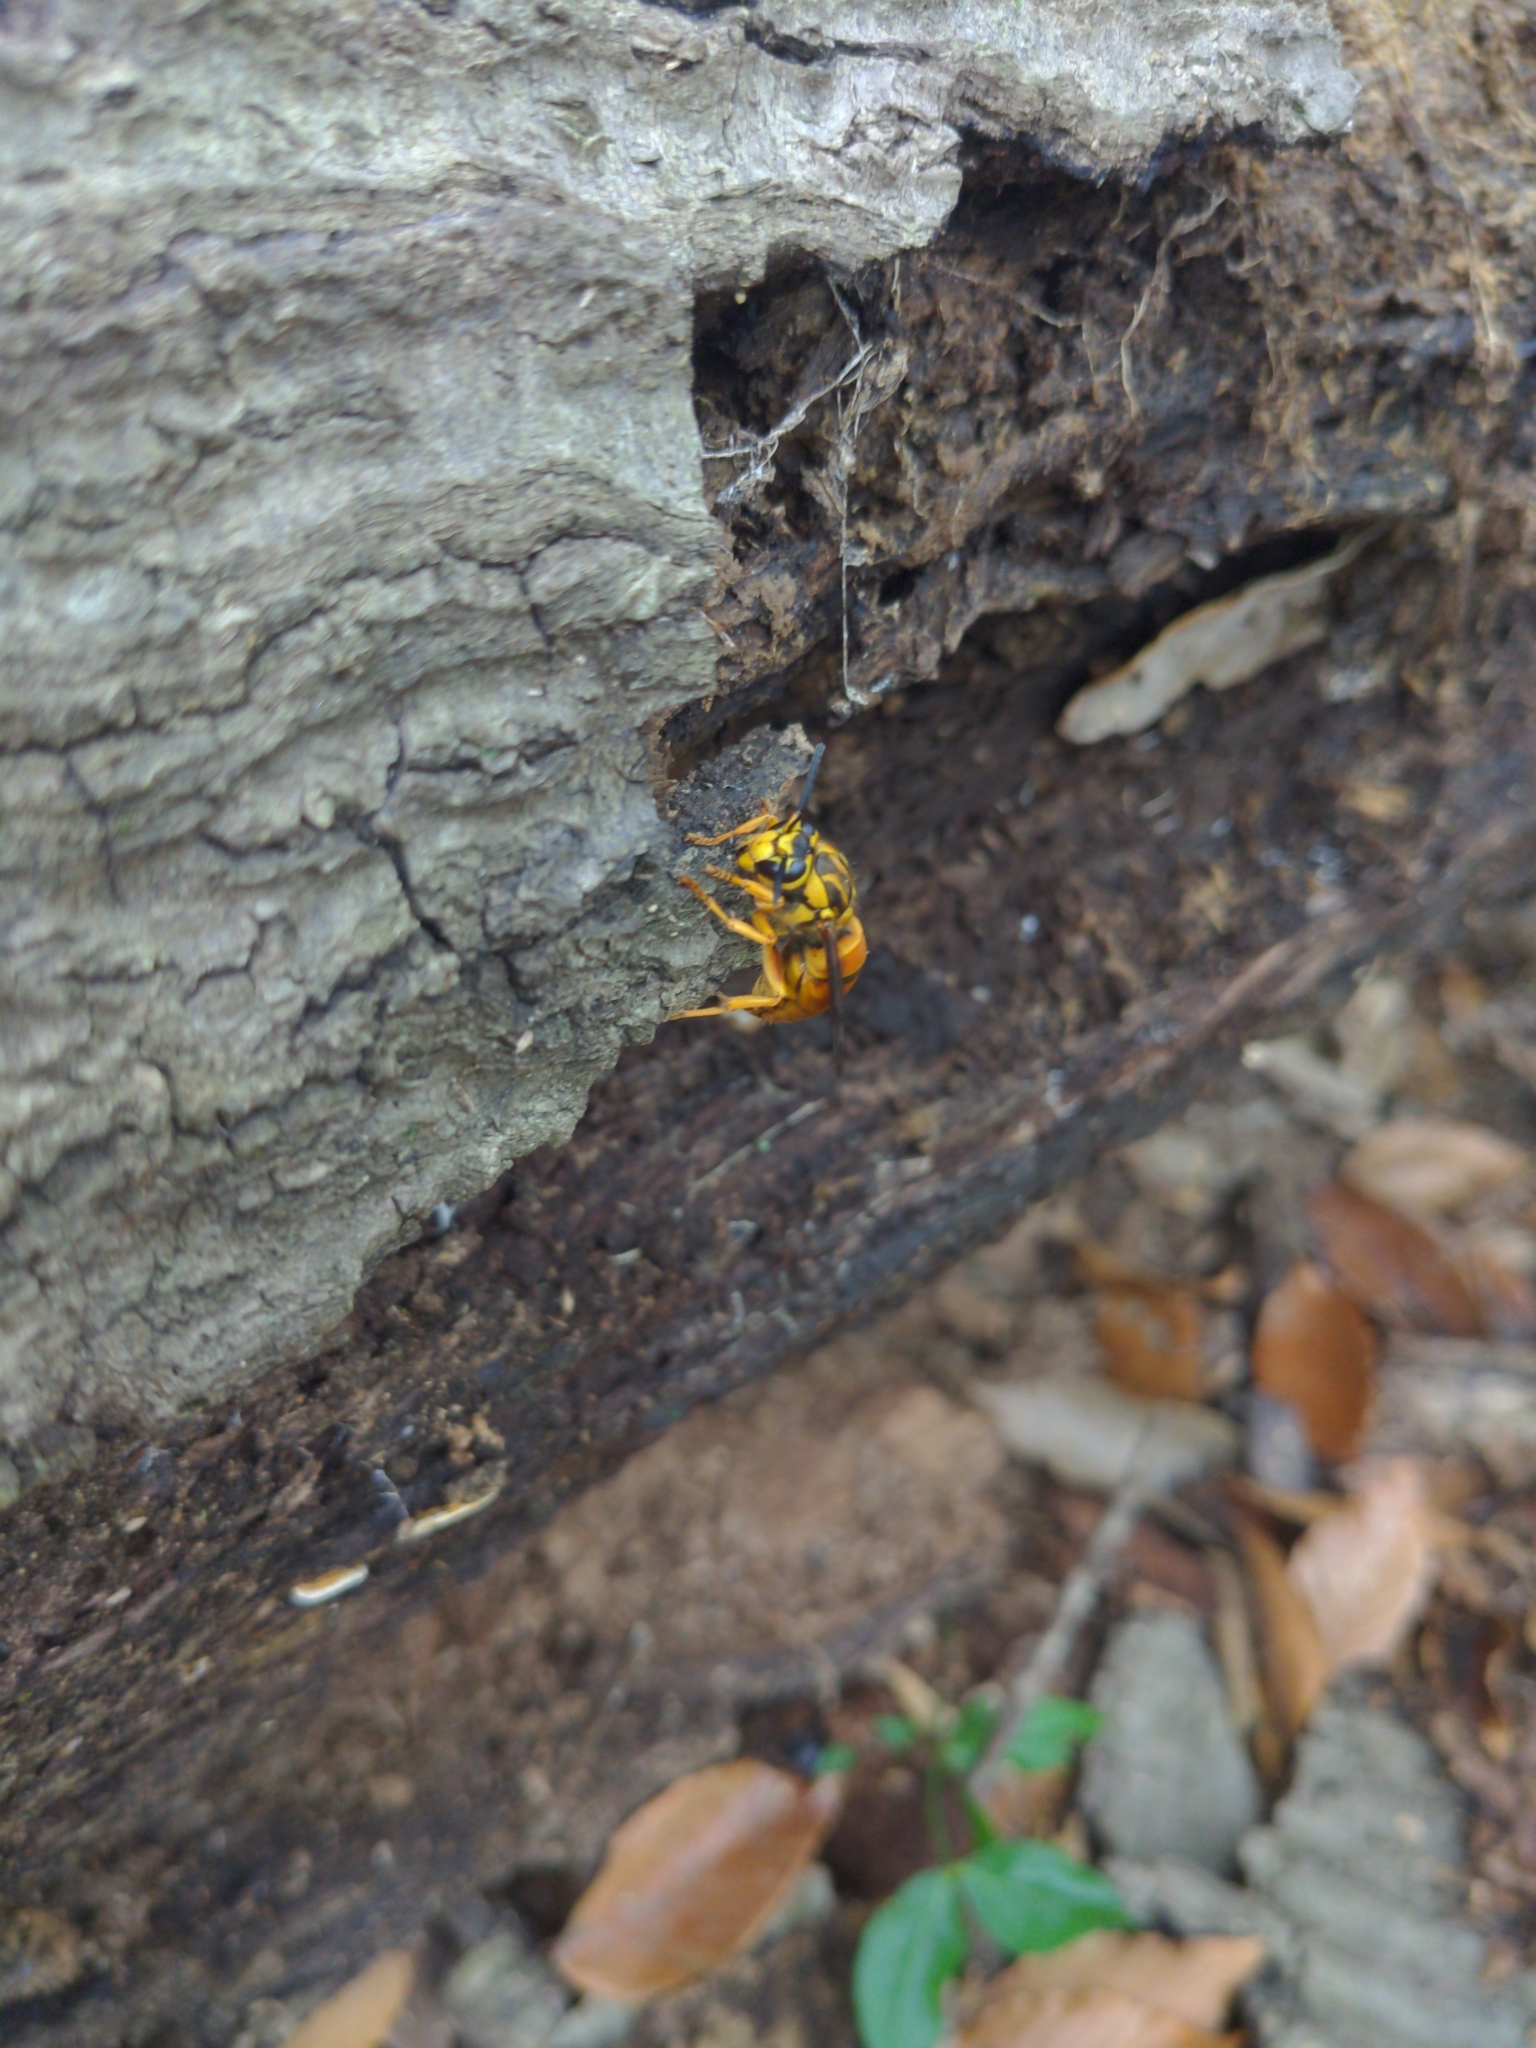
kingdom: Animalia
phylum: Arthropoda
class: Insecta
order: Hymenoptera
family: Vespidae
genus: Vespula
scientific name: Vespula squamosa
